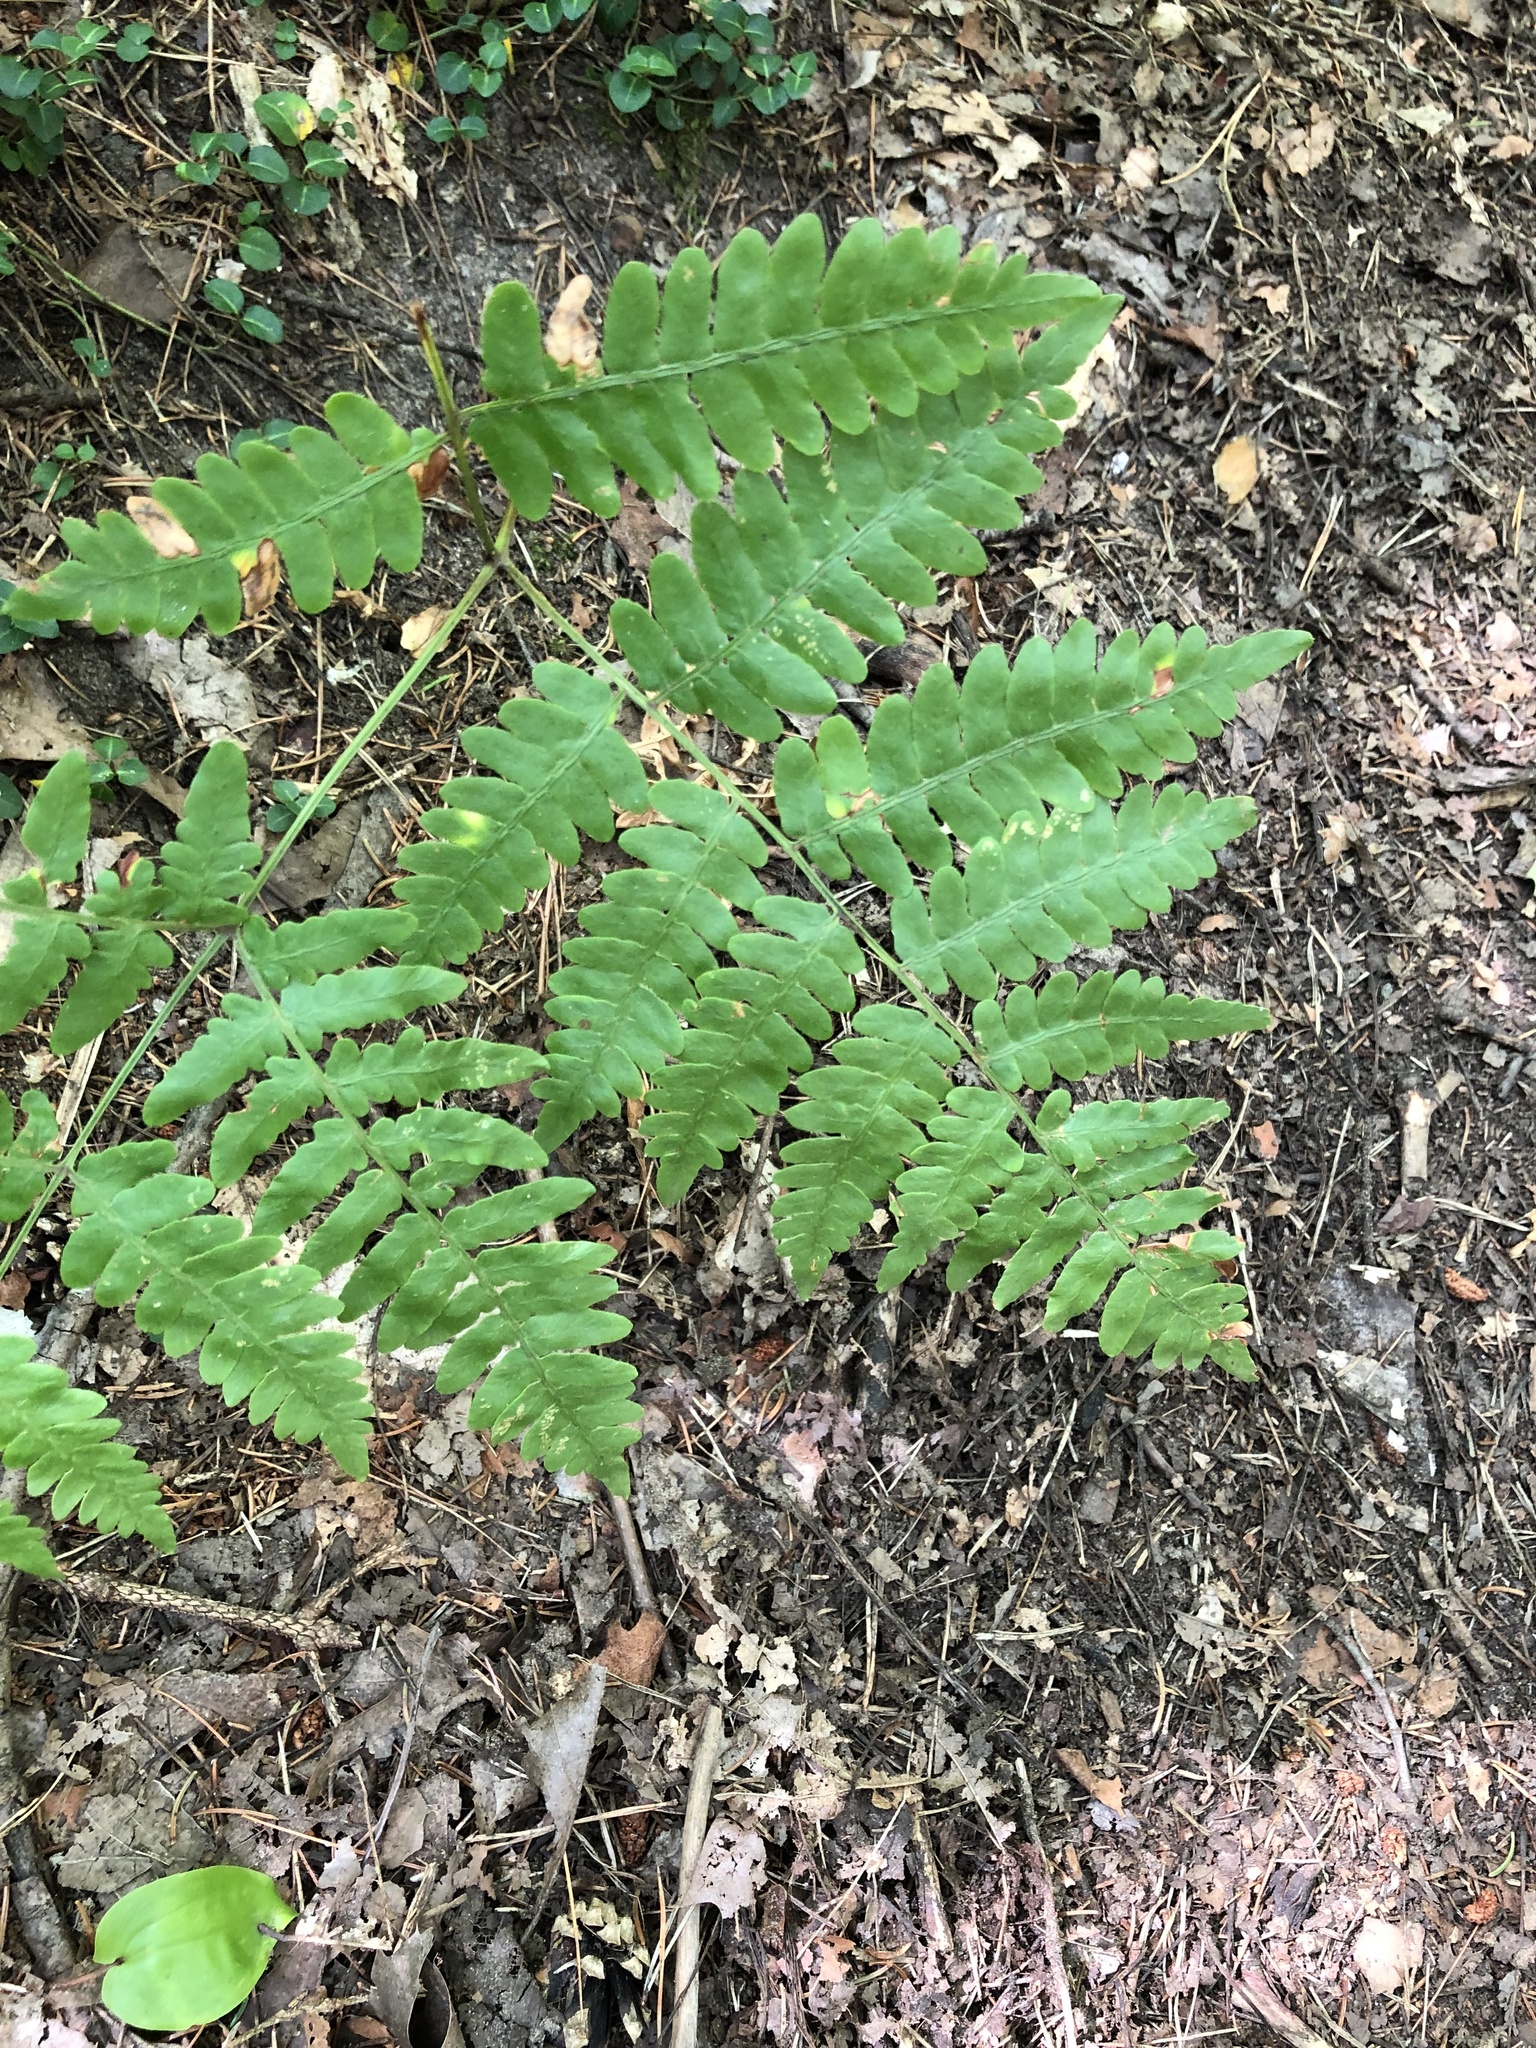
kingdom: Plantae
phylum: Tracheophyta
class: Polypodiopsida
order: Polypodiales
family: Dennstaedtiaceae
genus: Pteridium
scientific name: Pteridium aquilinum
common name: Bracken
